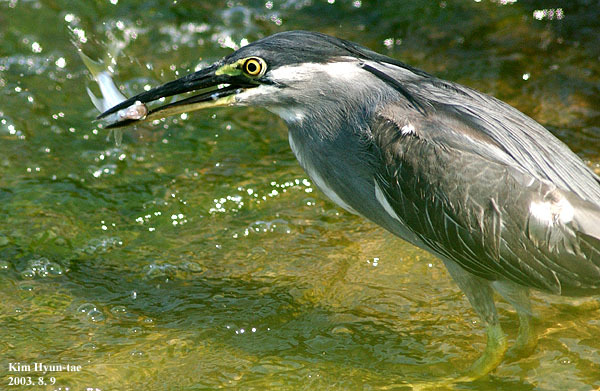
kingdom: Animalia
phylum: Chordata
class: Aves
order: Pelecaniformes
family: Ardeidae
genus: Butorides
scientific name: Butorides striata
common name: Striated heron
